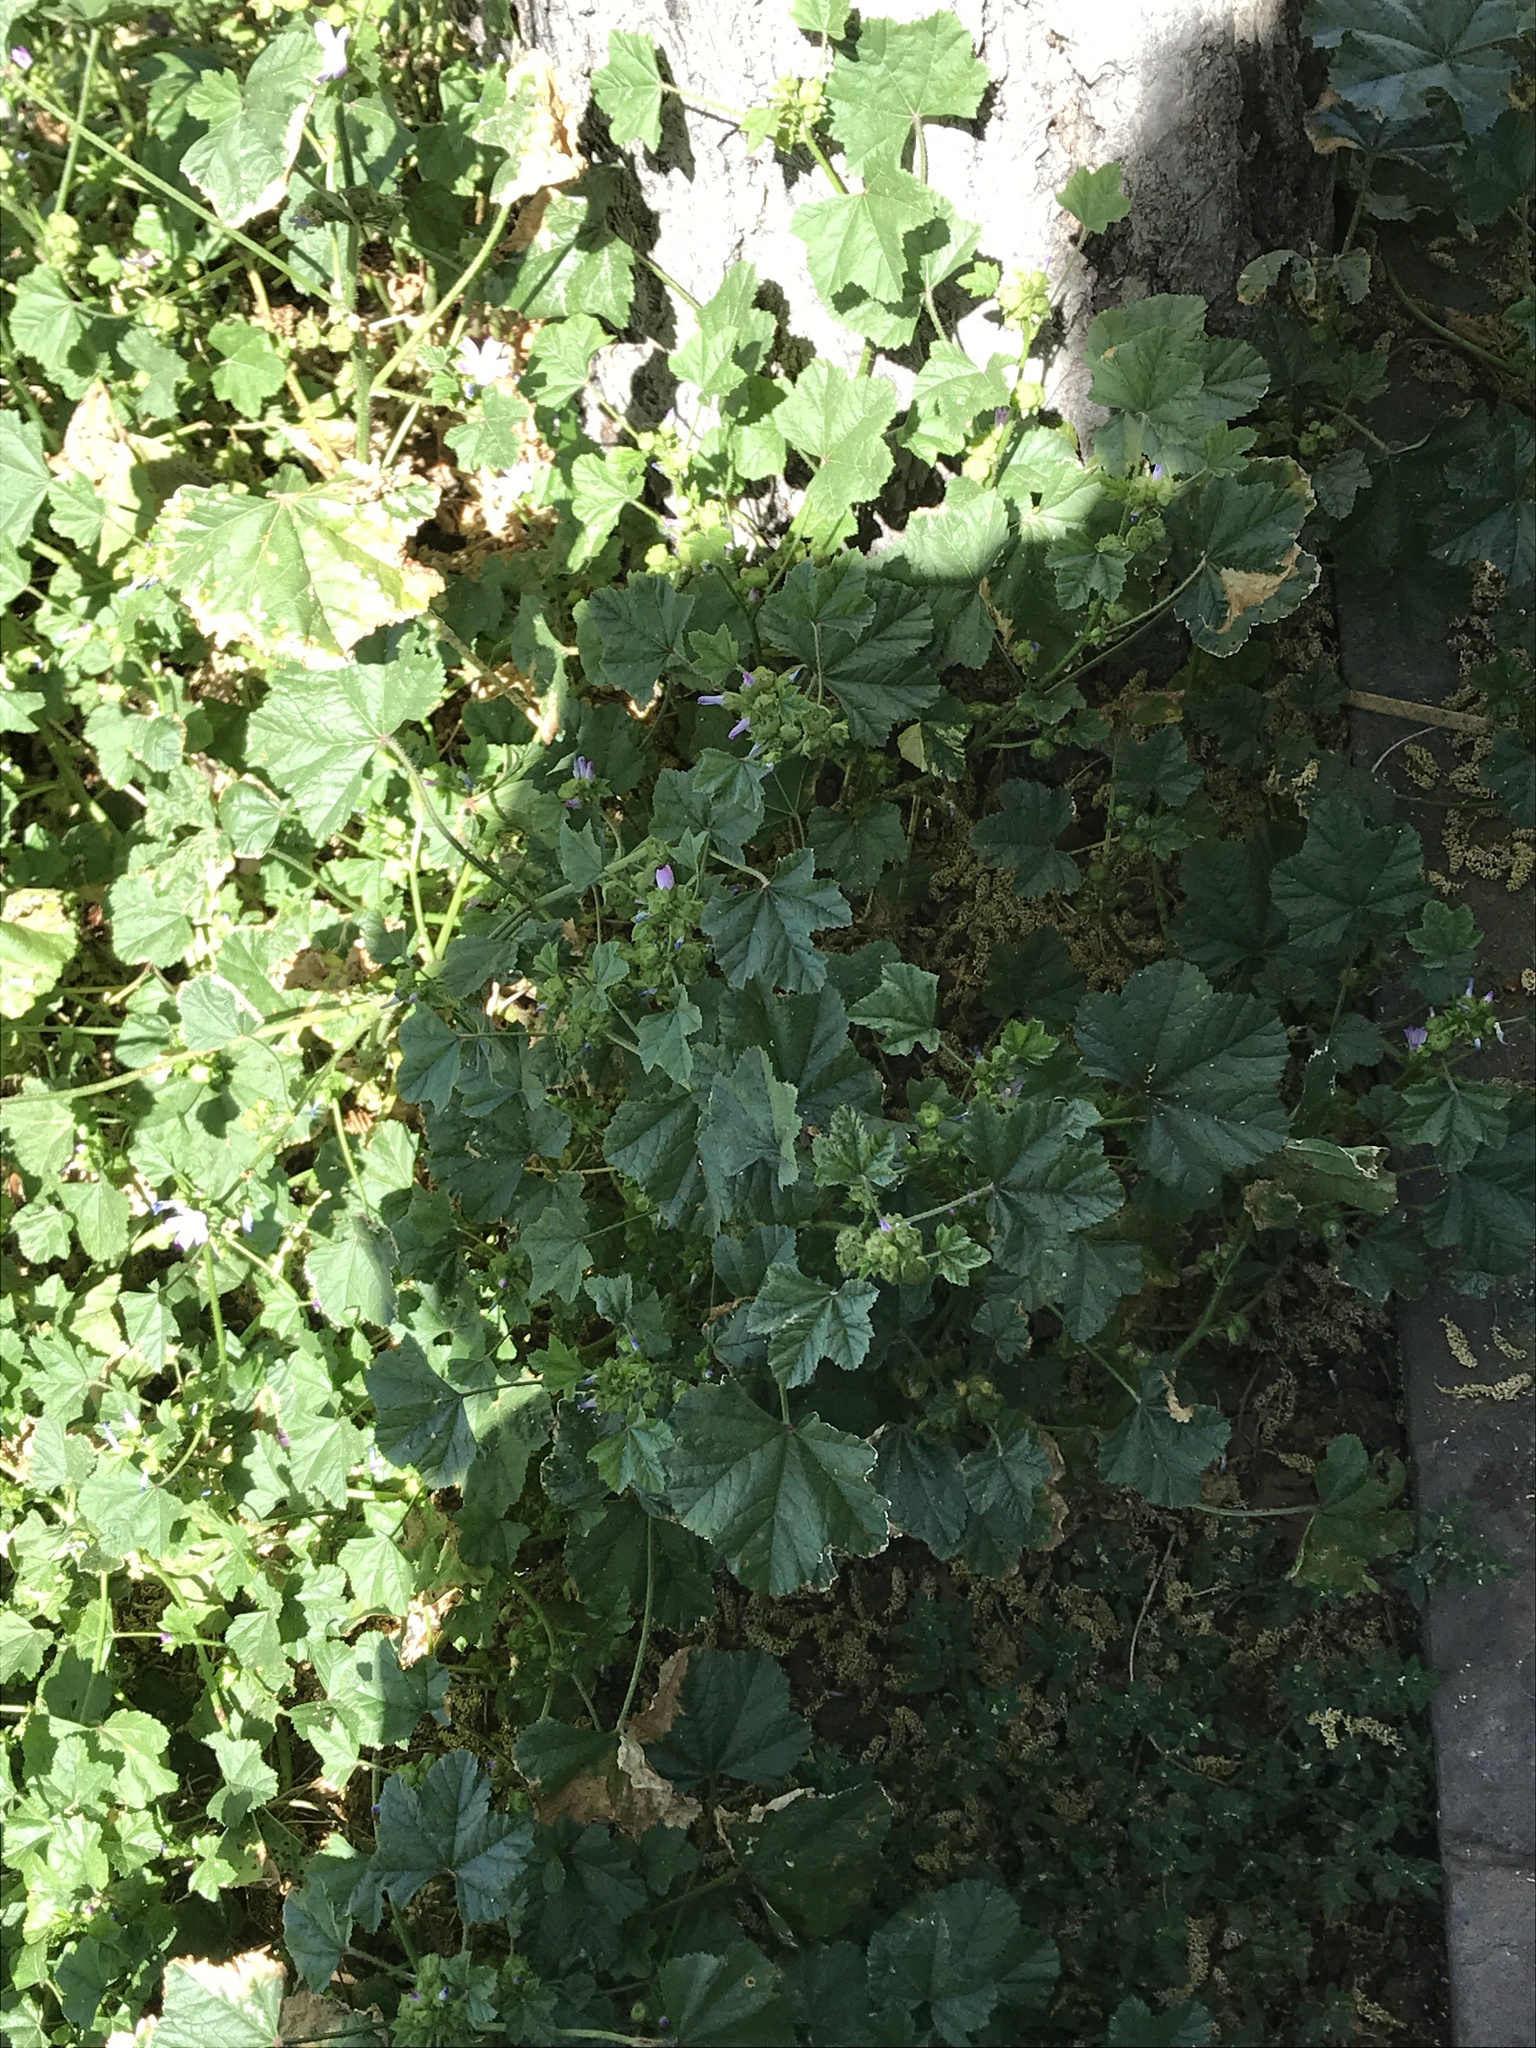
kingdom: Plantae
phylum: Tracheophyta
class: Magnoliopsida
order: Malvales
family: Malvaceae
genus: Malva
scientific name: Malva nicaeensis
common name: French mallow
